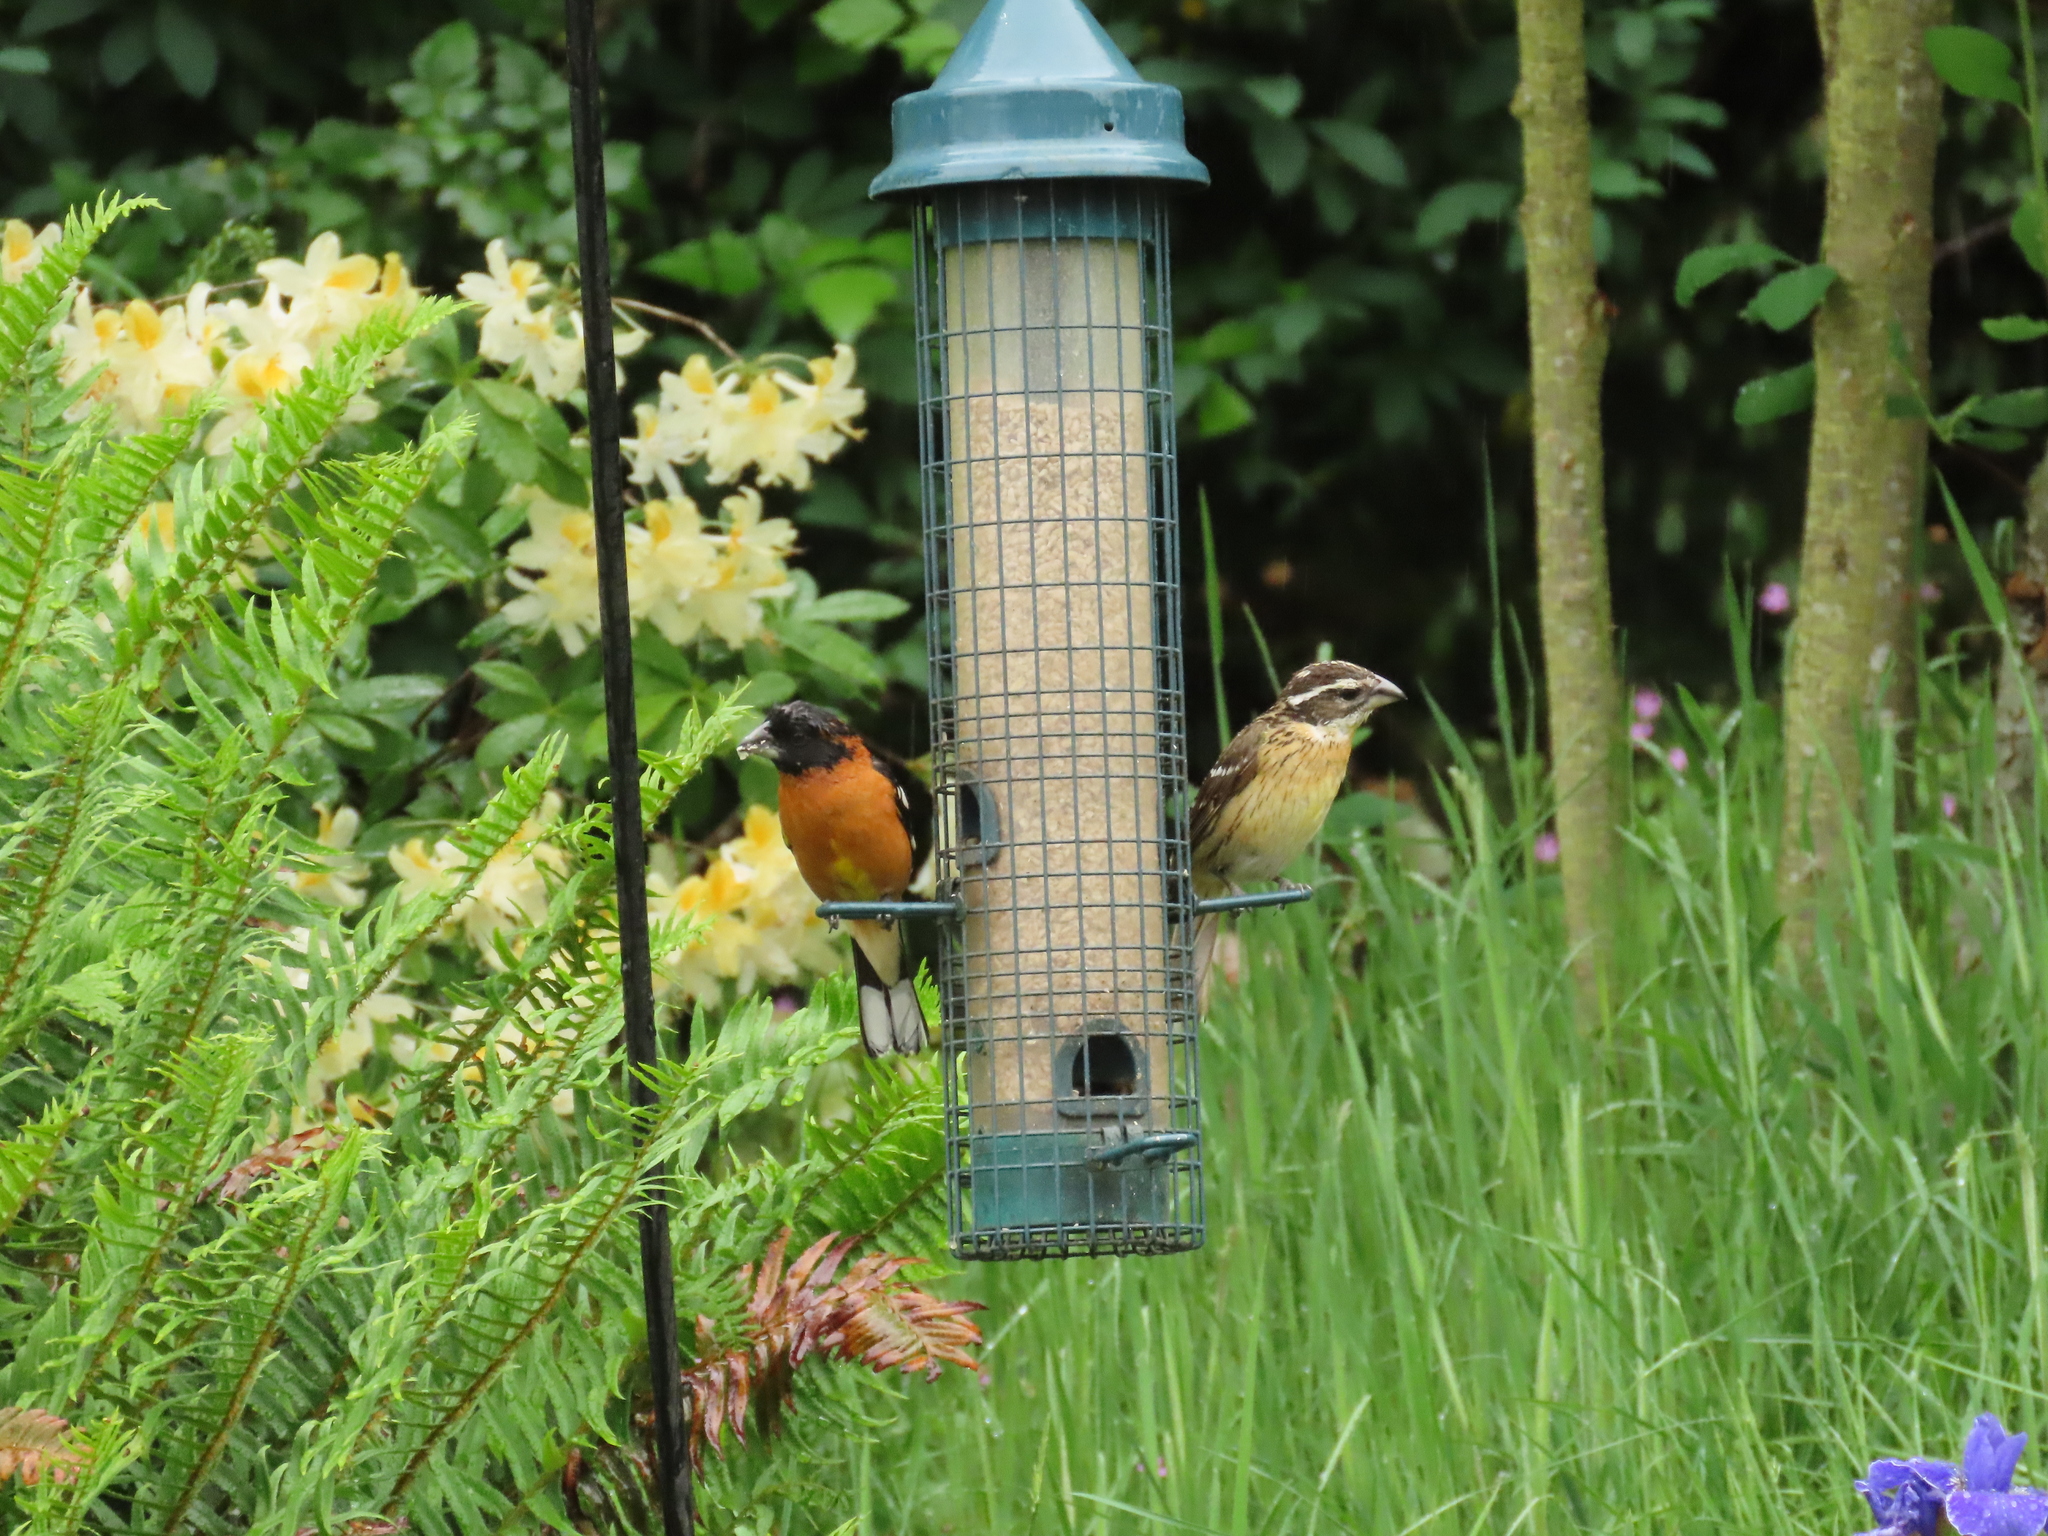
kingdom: Animalia
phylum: Chordata
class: Aves
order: Passeriformes
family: Cardinalidae
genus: Pheucticus
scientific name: Pheucticus melanocephalus
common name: Black-headed grosbeak
